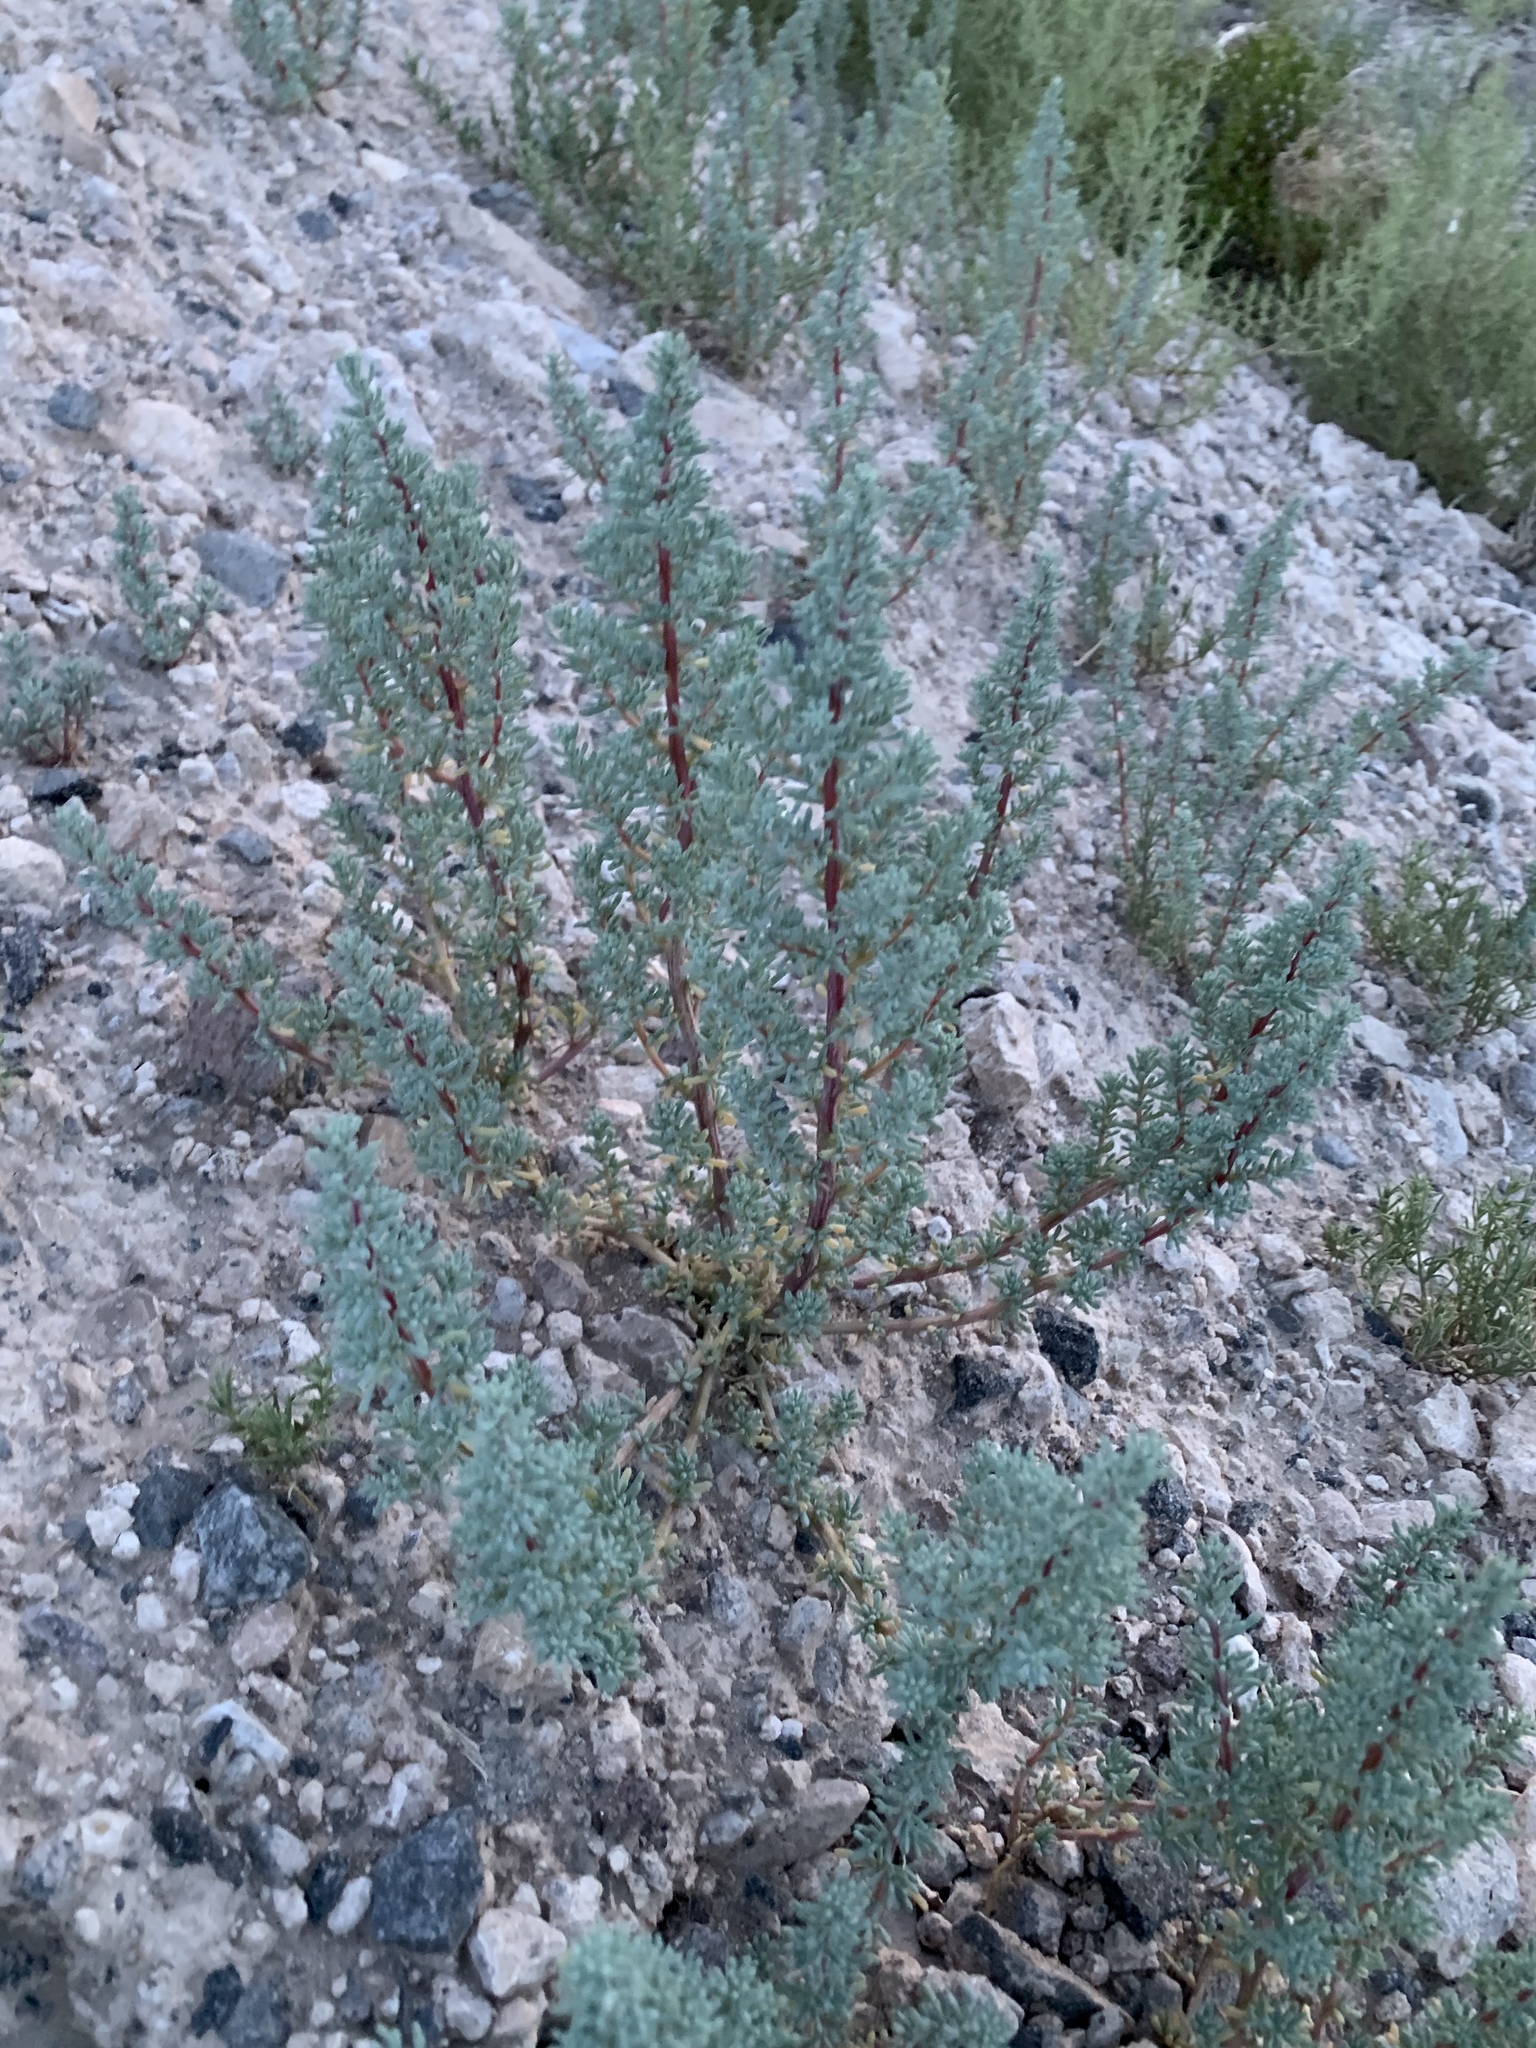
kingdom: Plantae
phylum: Tracheophyta
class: Magnoliopsida
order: Caryophyllales
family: Amaranthaceae
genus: Halogeton
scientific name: Halogeton glomeratus
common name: Saltlover
